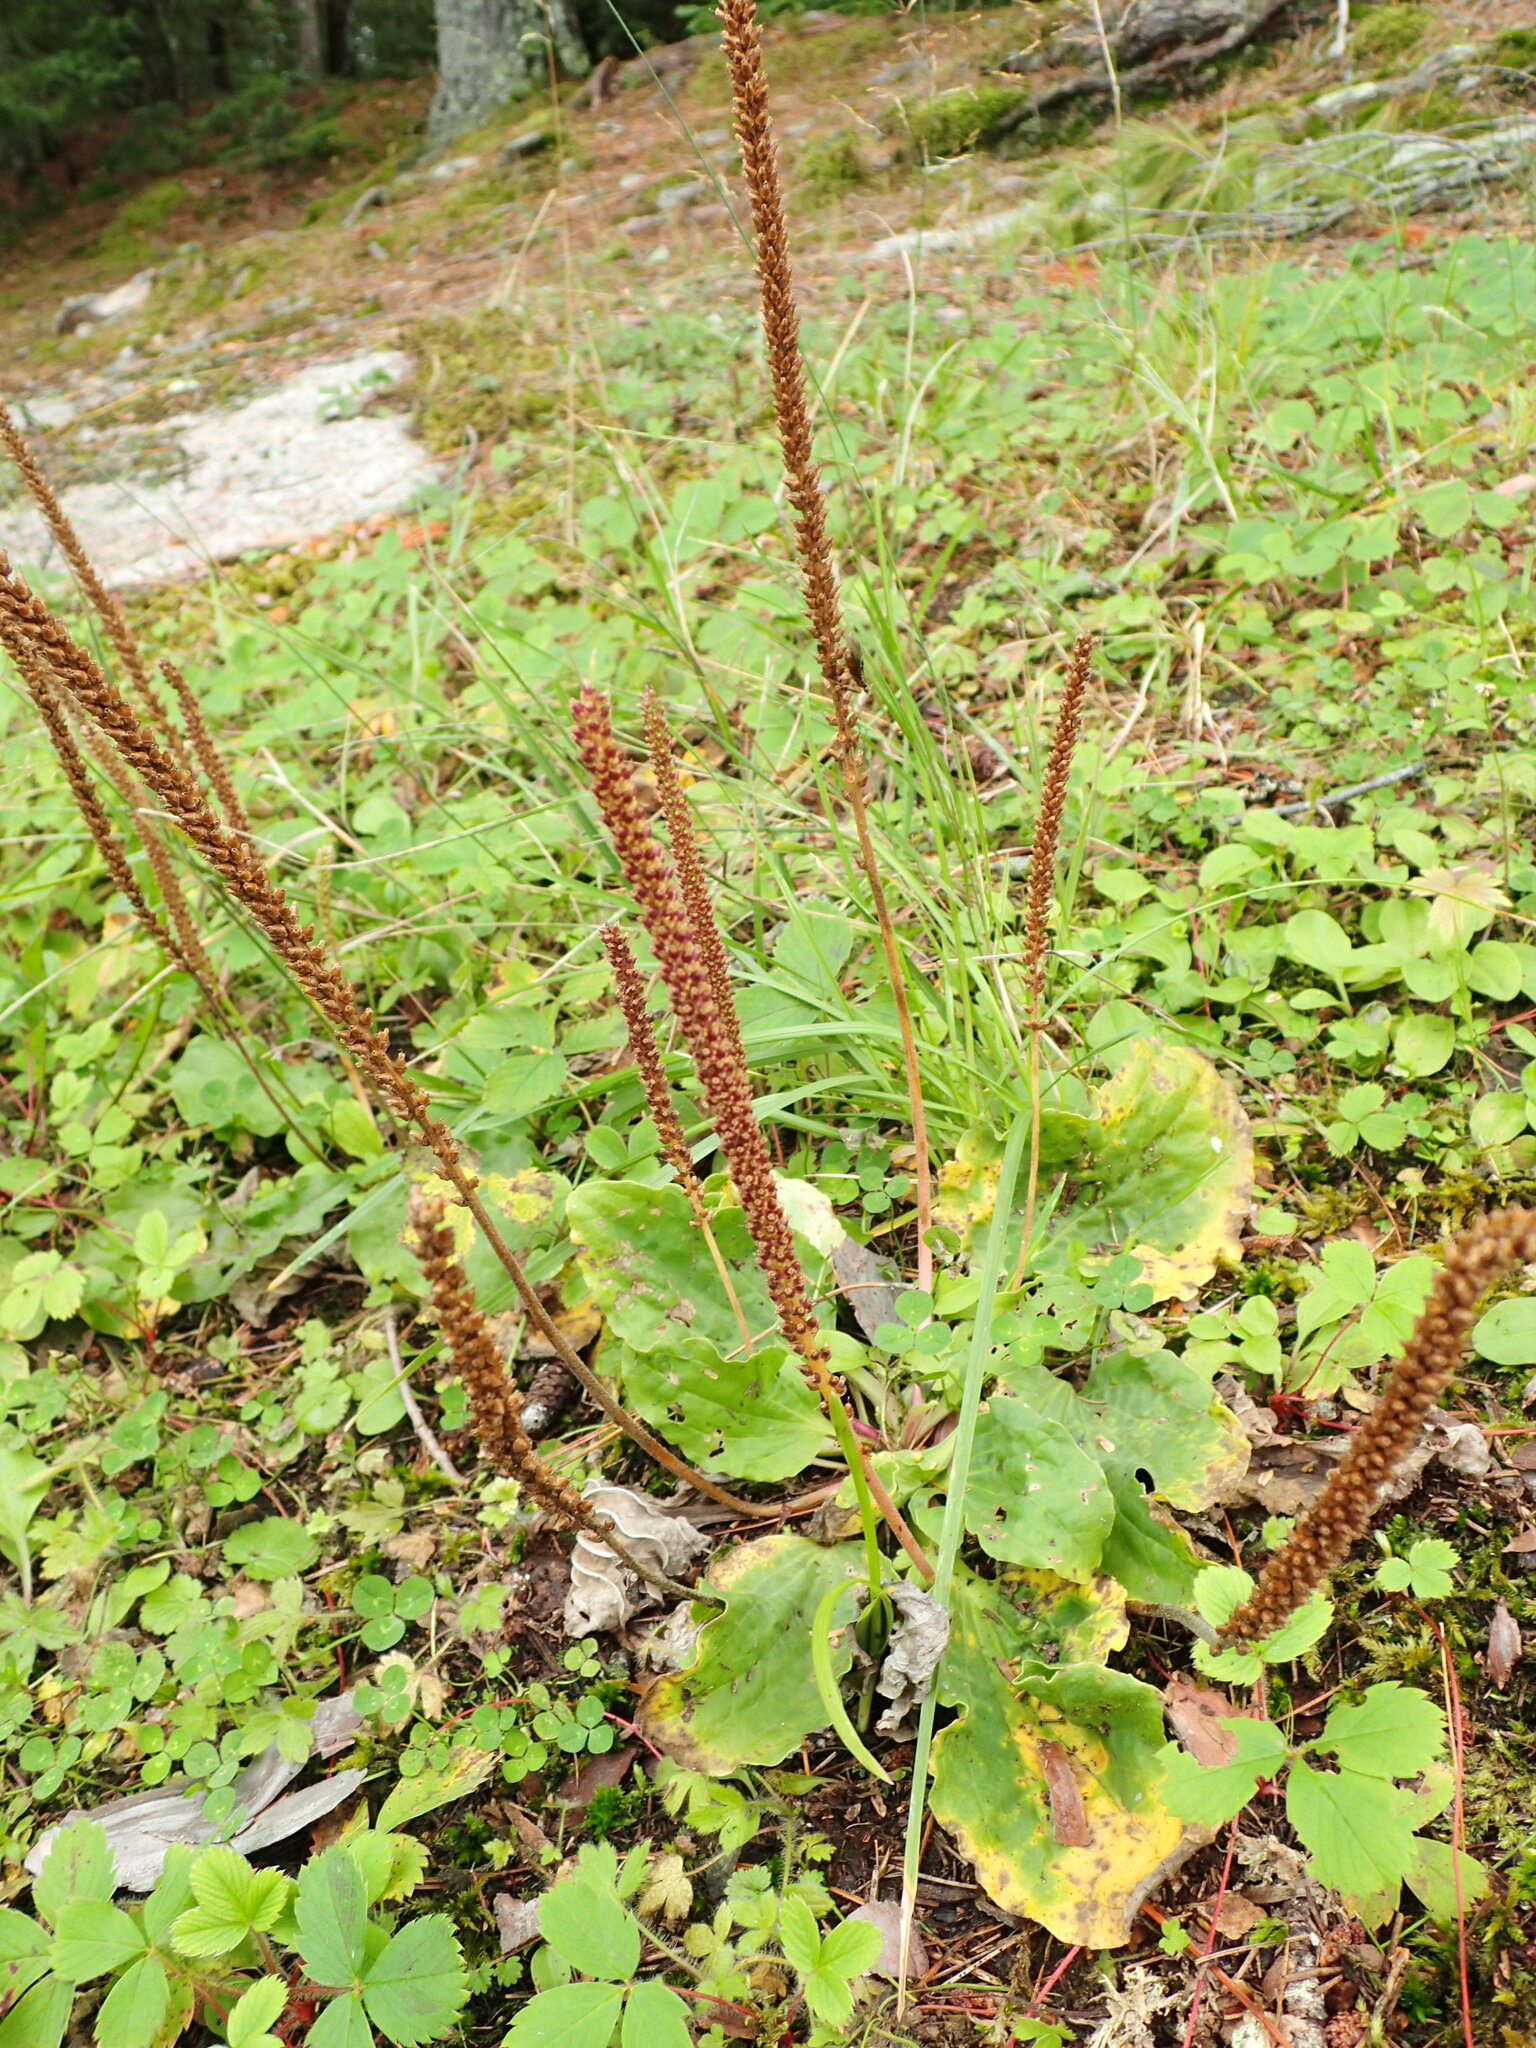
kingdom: Plantae
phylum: Tracheophyta
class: Magnoliopsida
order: Lamiales
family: Plantaginaceae
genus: Plantago
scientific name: Plantago rugelii
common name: American plantain
